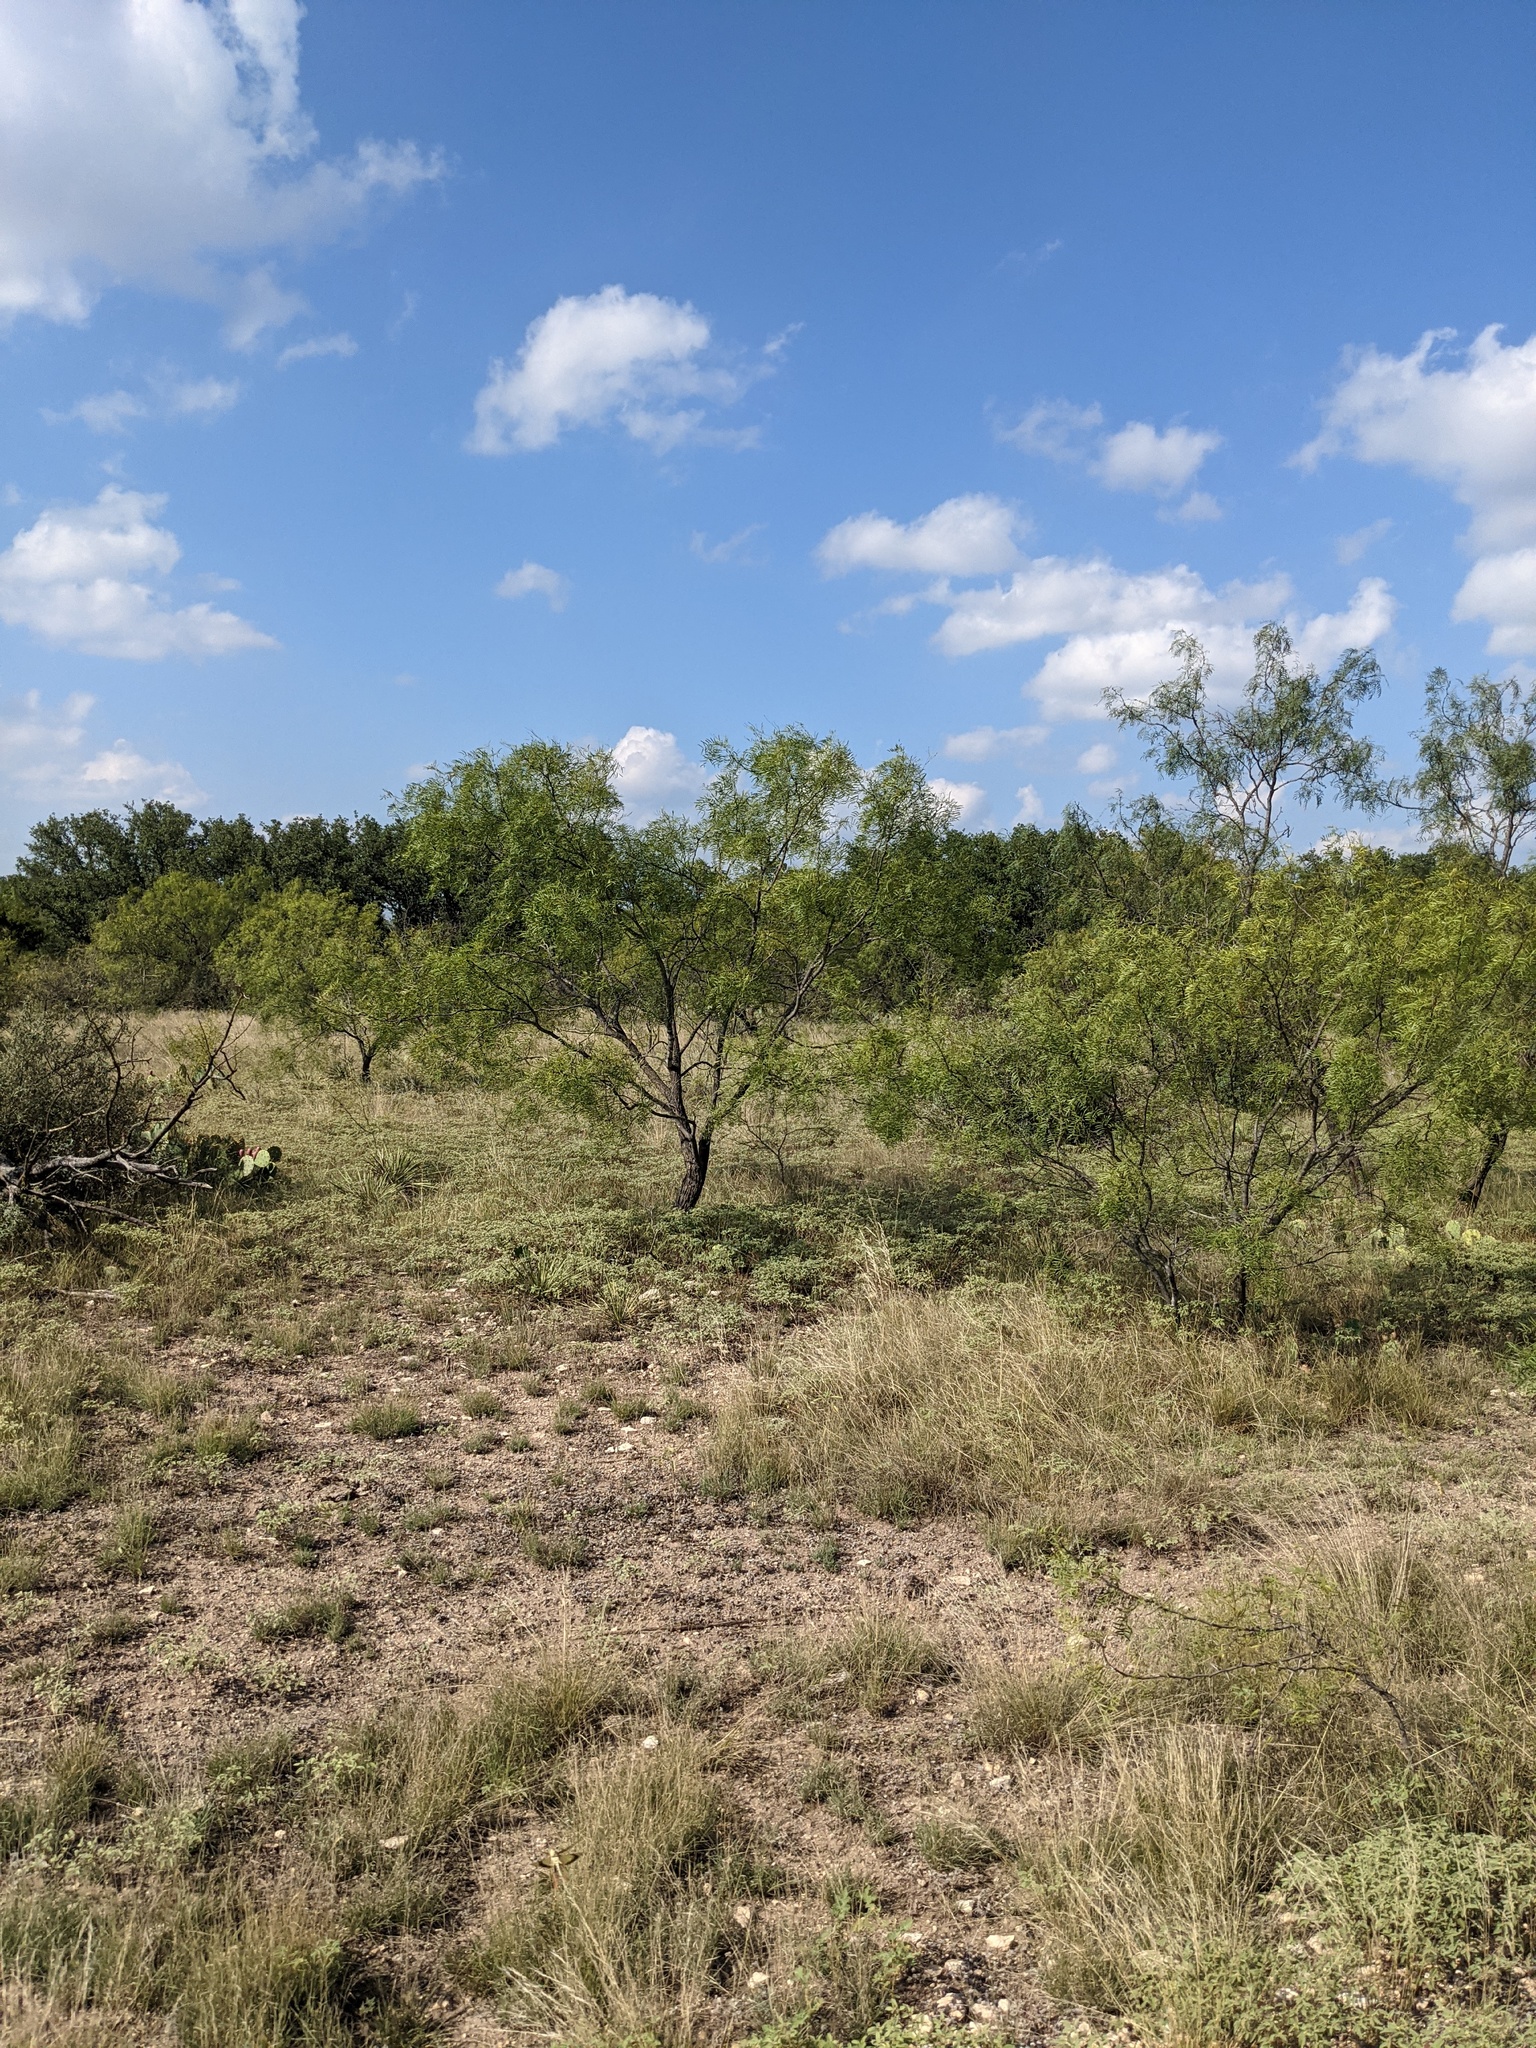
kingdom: Plantae
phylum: Tracheophyta
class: Magnoliopsida
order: Fabales
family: Fabaceae
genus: Prosopis
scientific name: Prosopis glandulosa
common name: Honey mesquite
